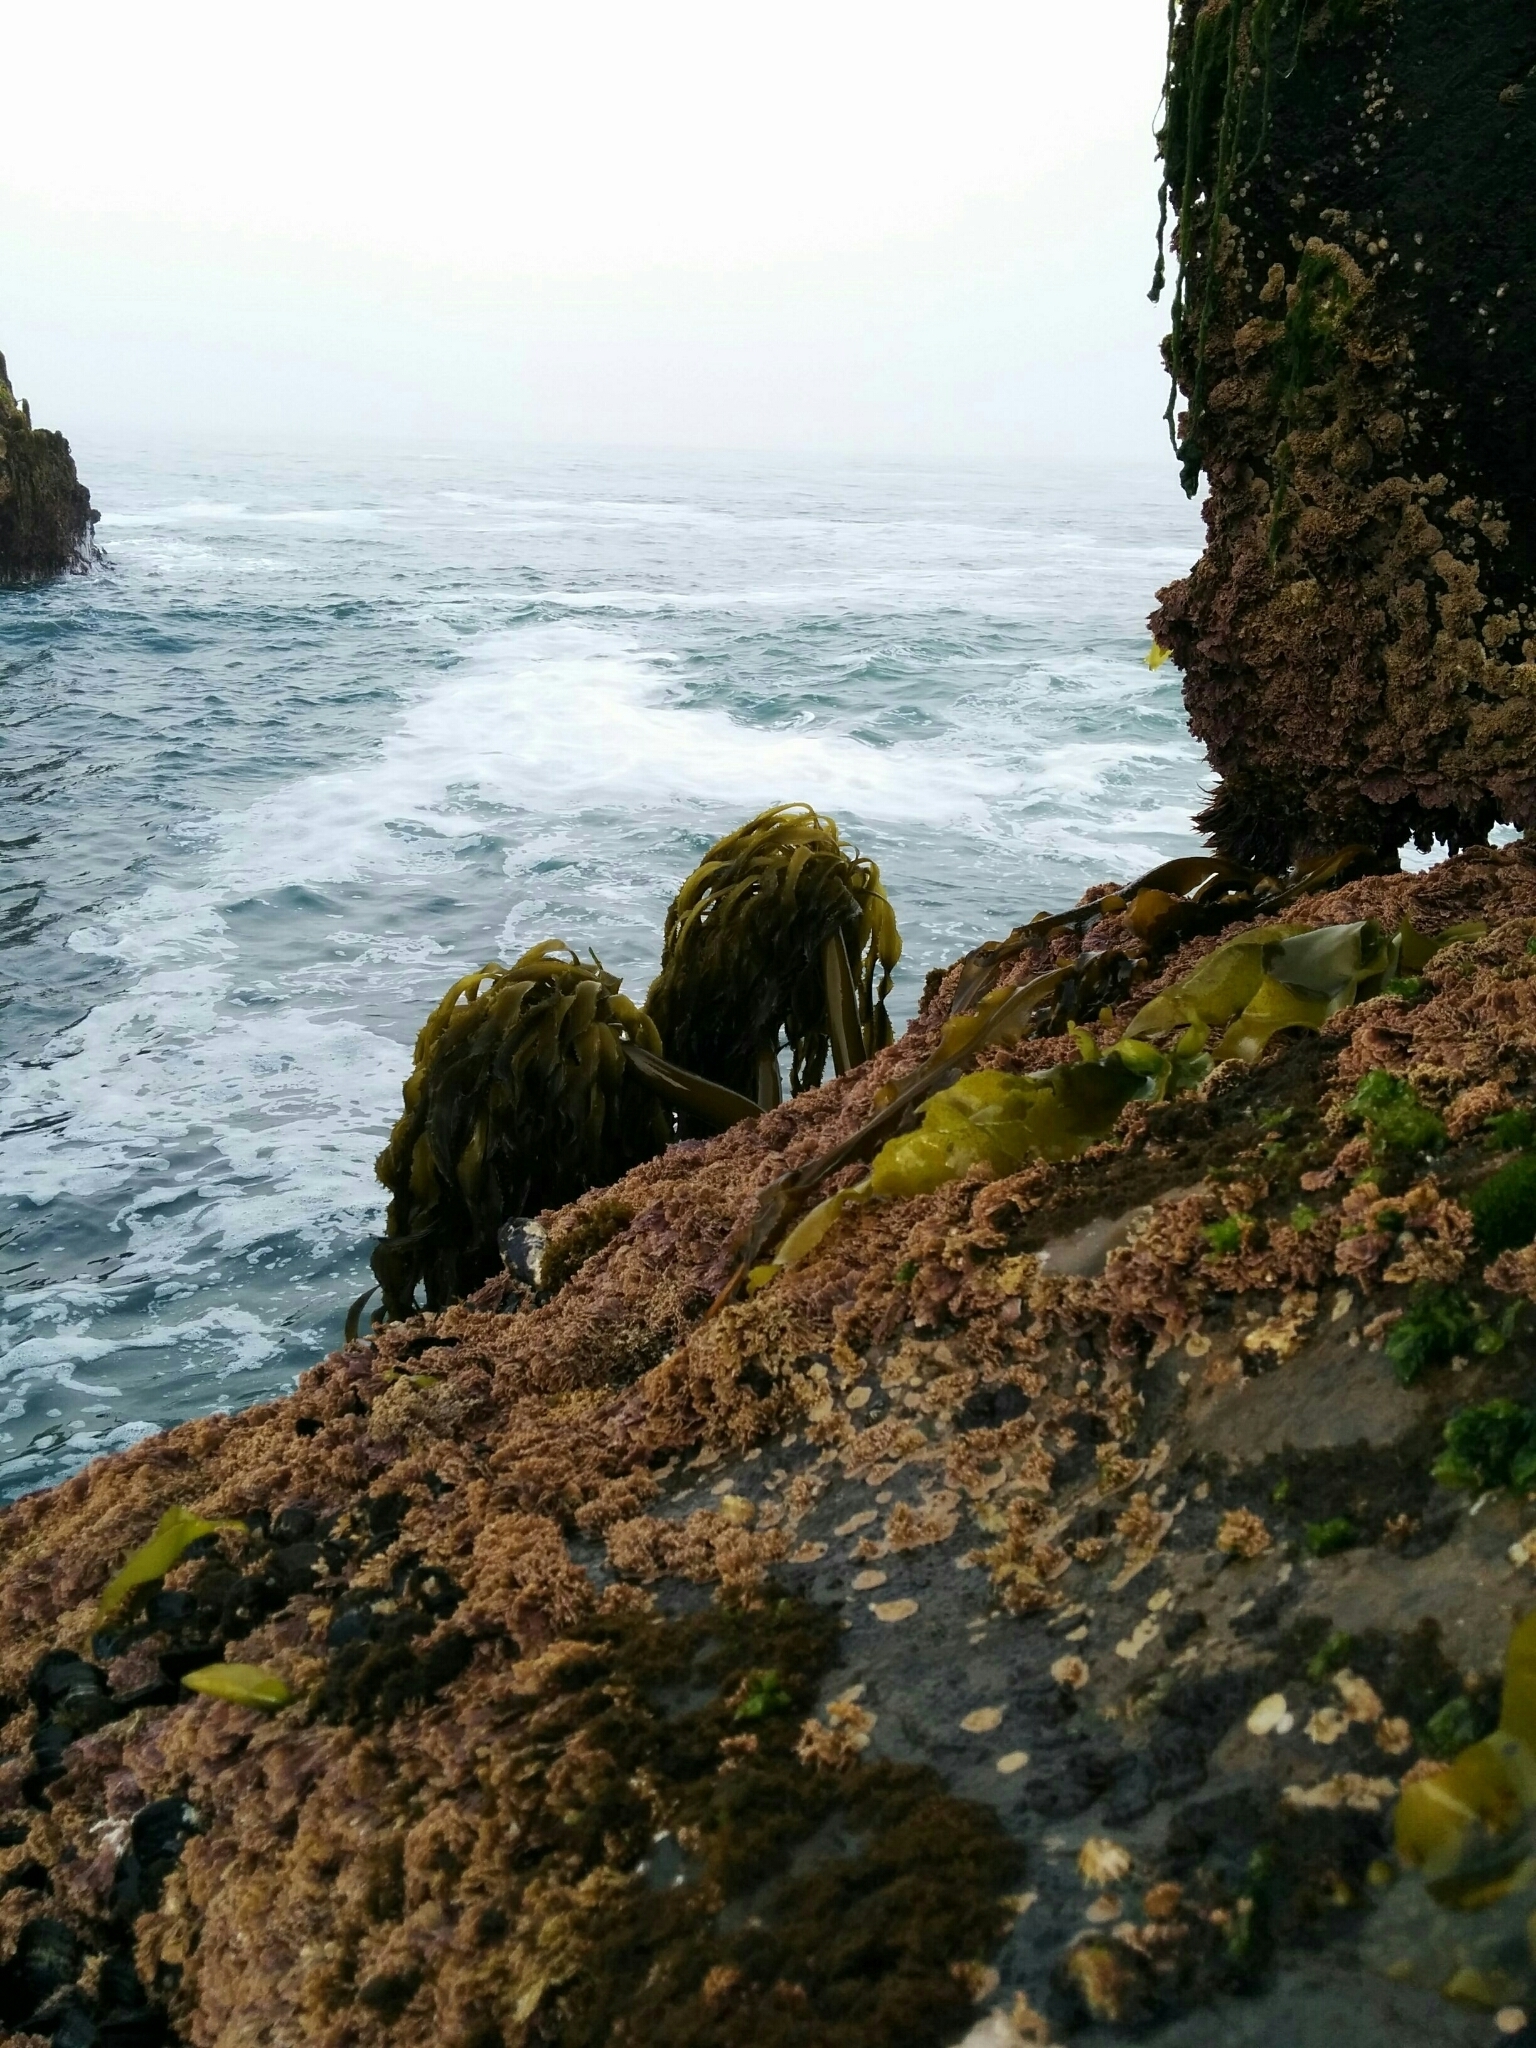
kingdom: Chromista
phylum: Ochrophyta
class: Phaeophyceae
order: Laminariales
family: Laminariaceae
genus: Postelsia
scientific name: Postelsia palmiformis
